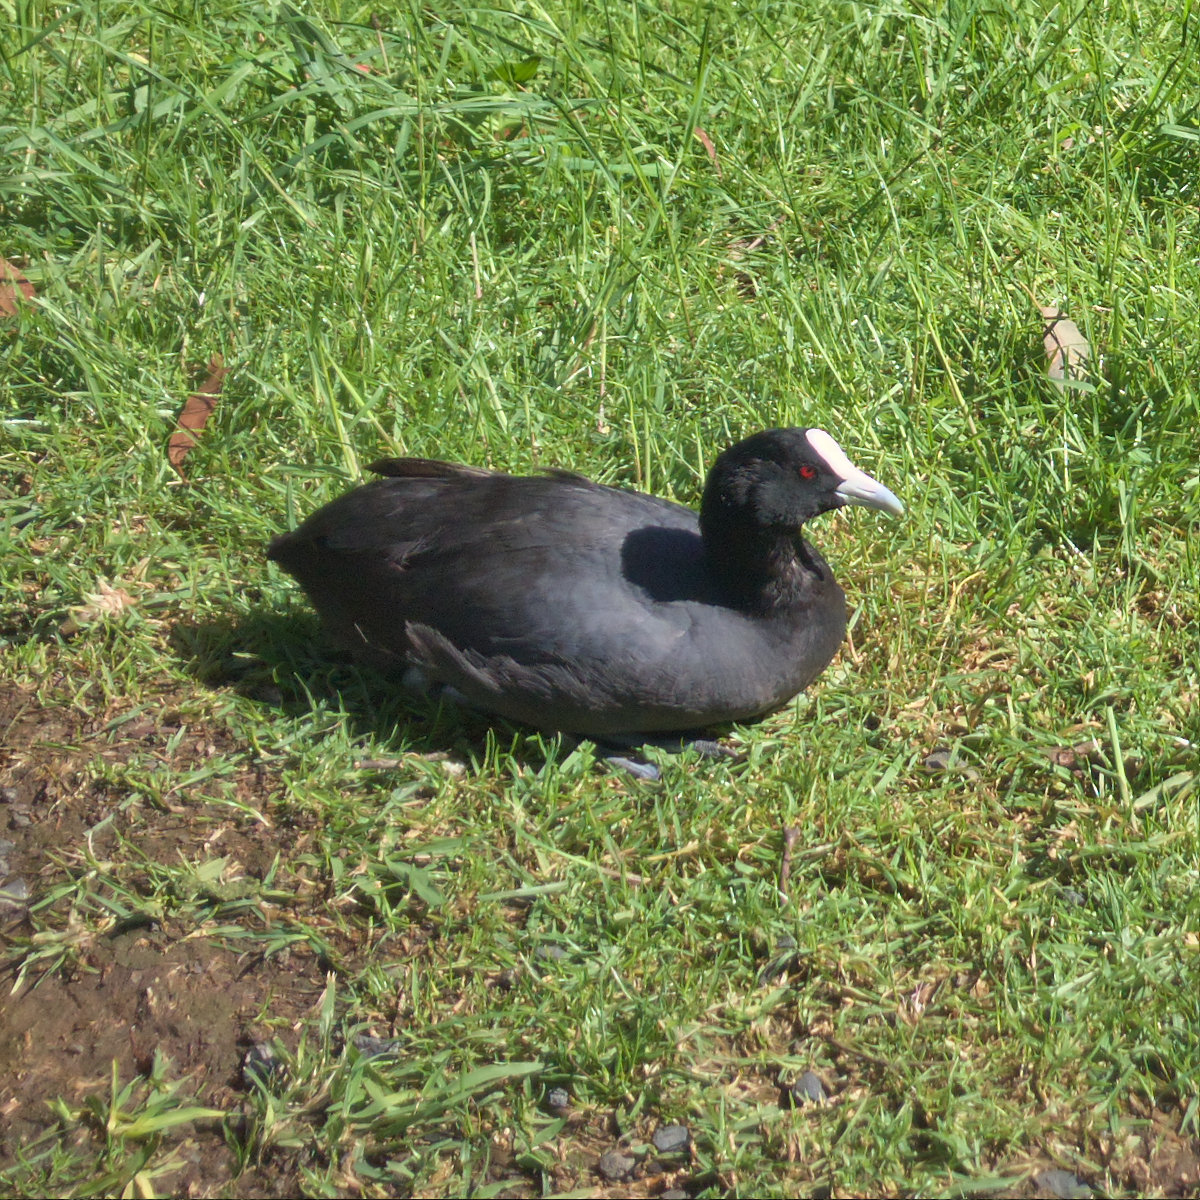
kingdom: Animalia
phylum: Chordata
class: Aves
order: Gruiformes
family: Rallidae
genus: Fulica
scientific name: Fulica atra
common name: Eurasian coot
